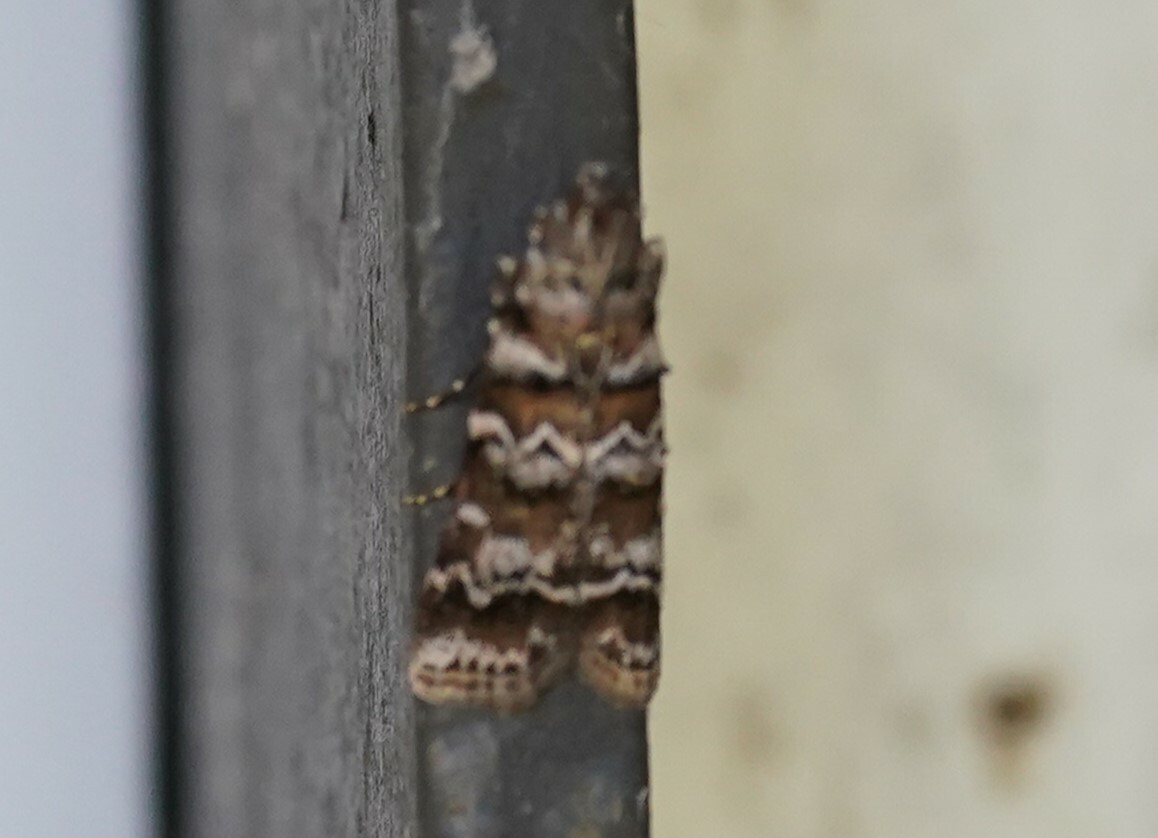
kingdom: Animalia
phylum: Arthropoda
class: Insecta
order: Lepidoptera
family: Pyralidae
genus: Dioryctria
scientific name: Dioryctria amatella
